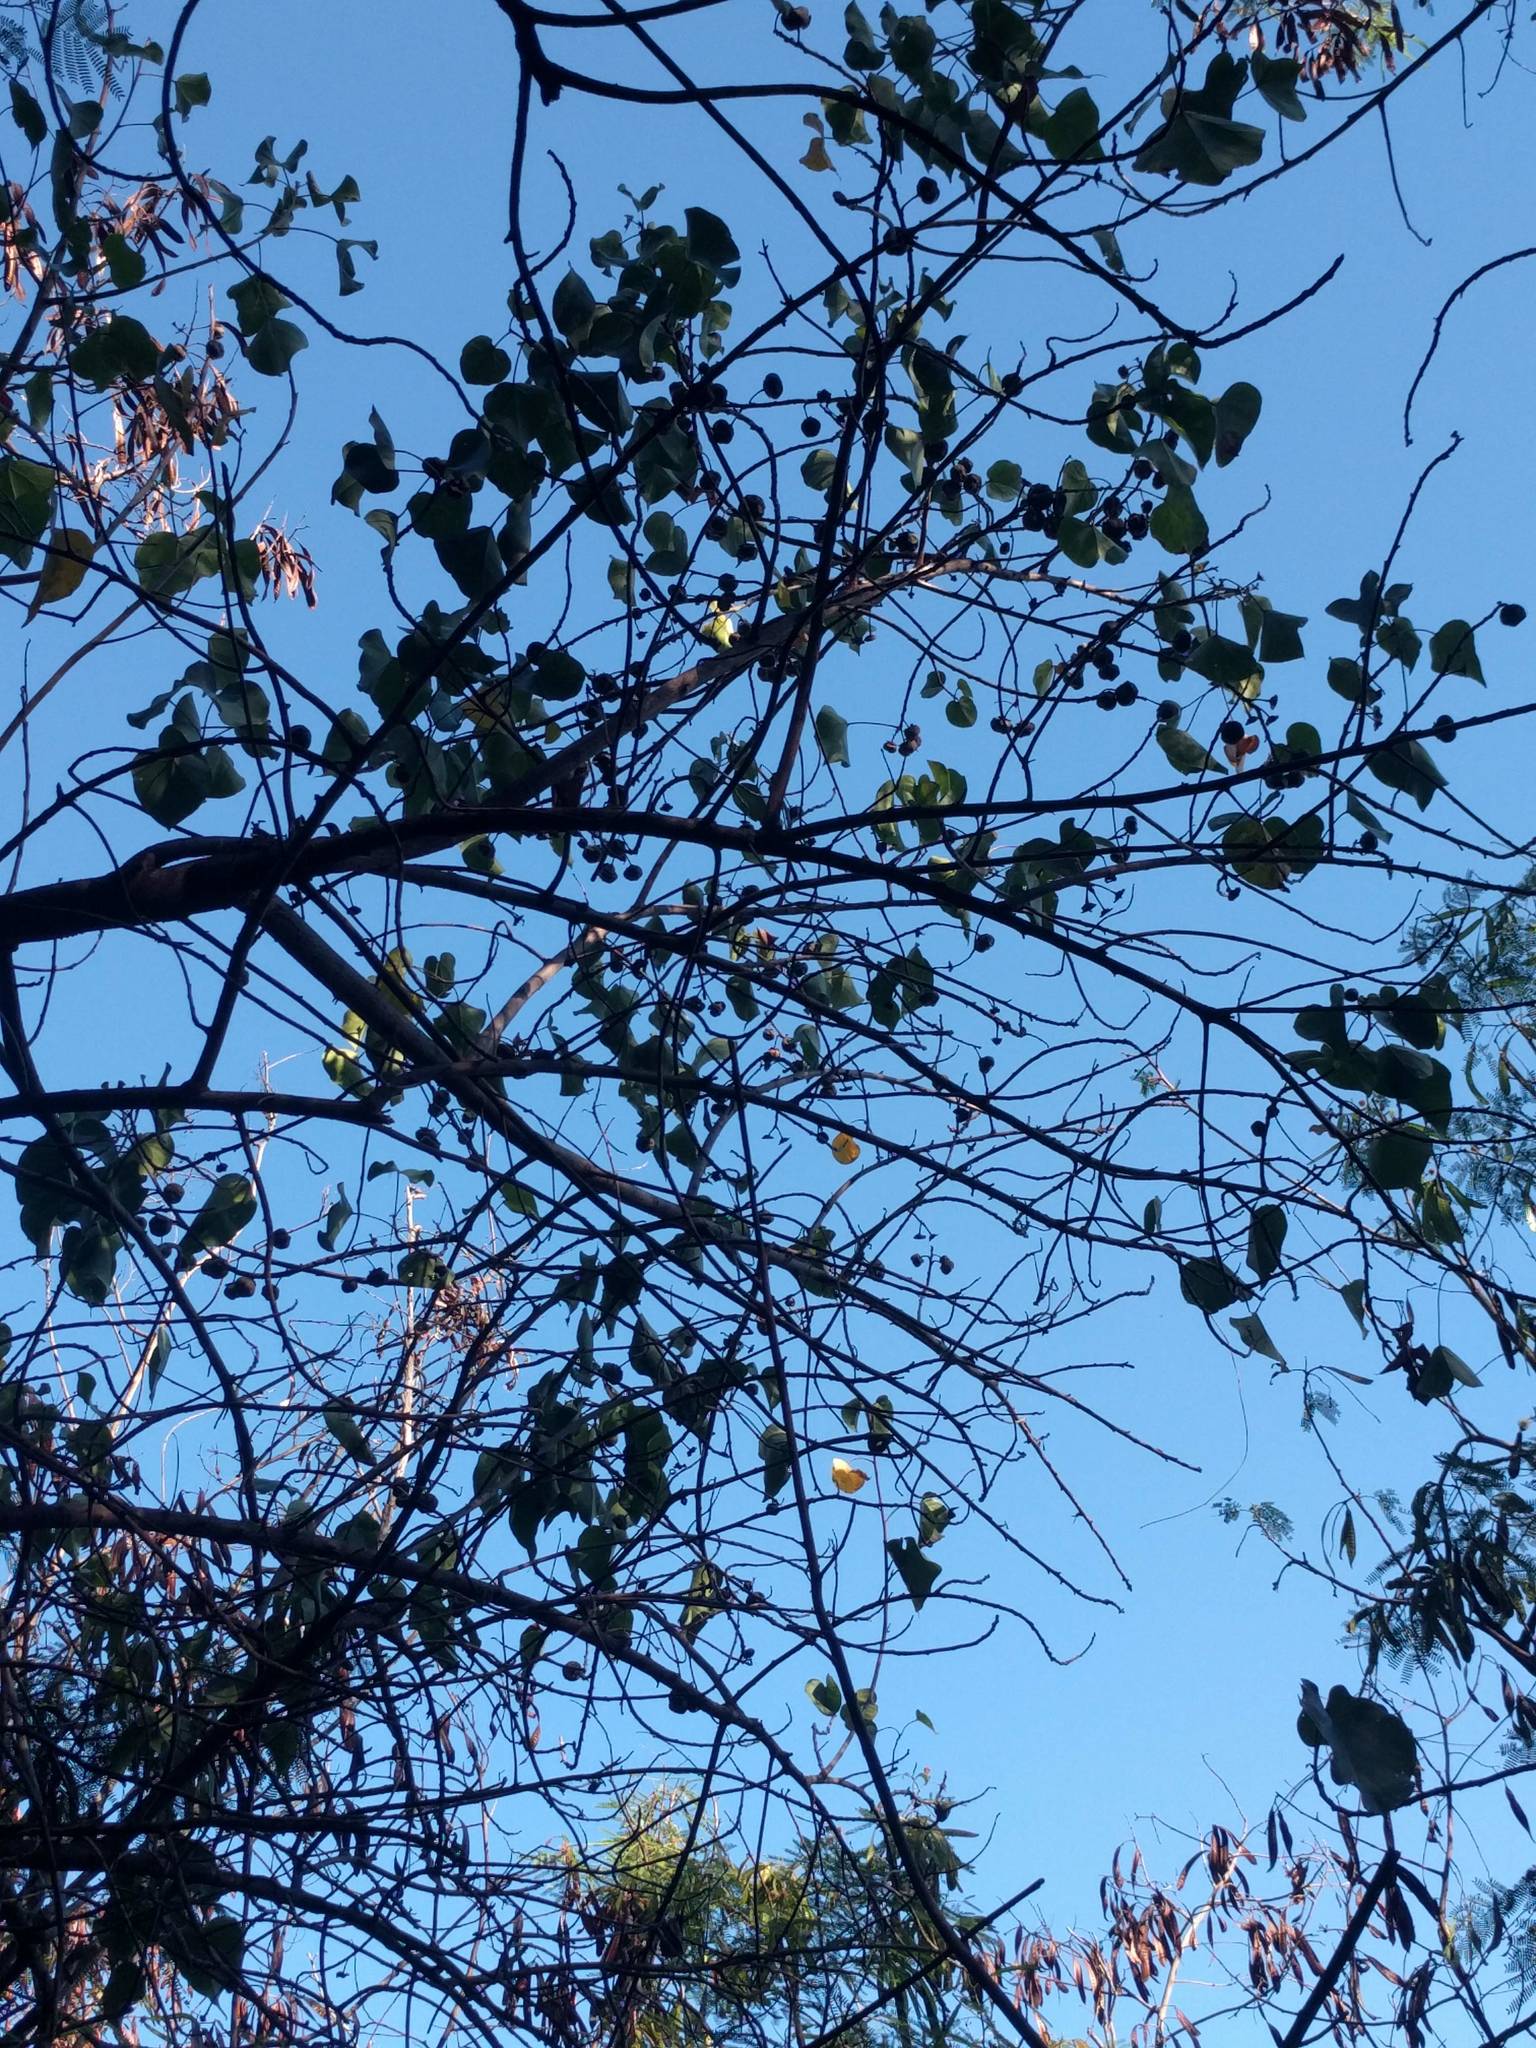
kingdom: Plantae
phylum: Tracheophyta
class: Magnoliopsida
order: Malvales
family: Malvaceae
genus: Thespesia
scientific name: Thespesia populnea
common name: Seaside mahoe
